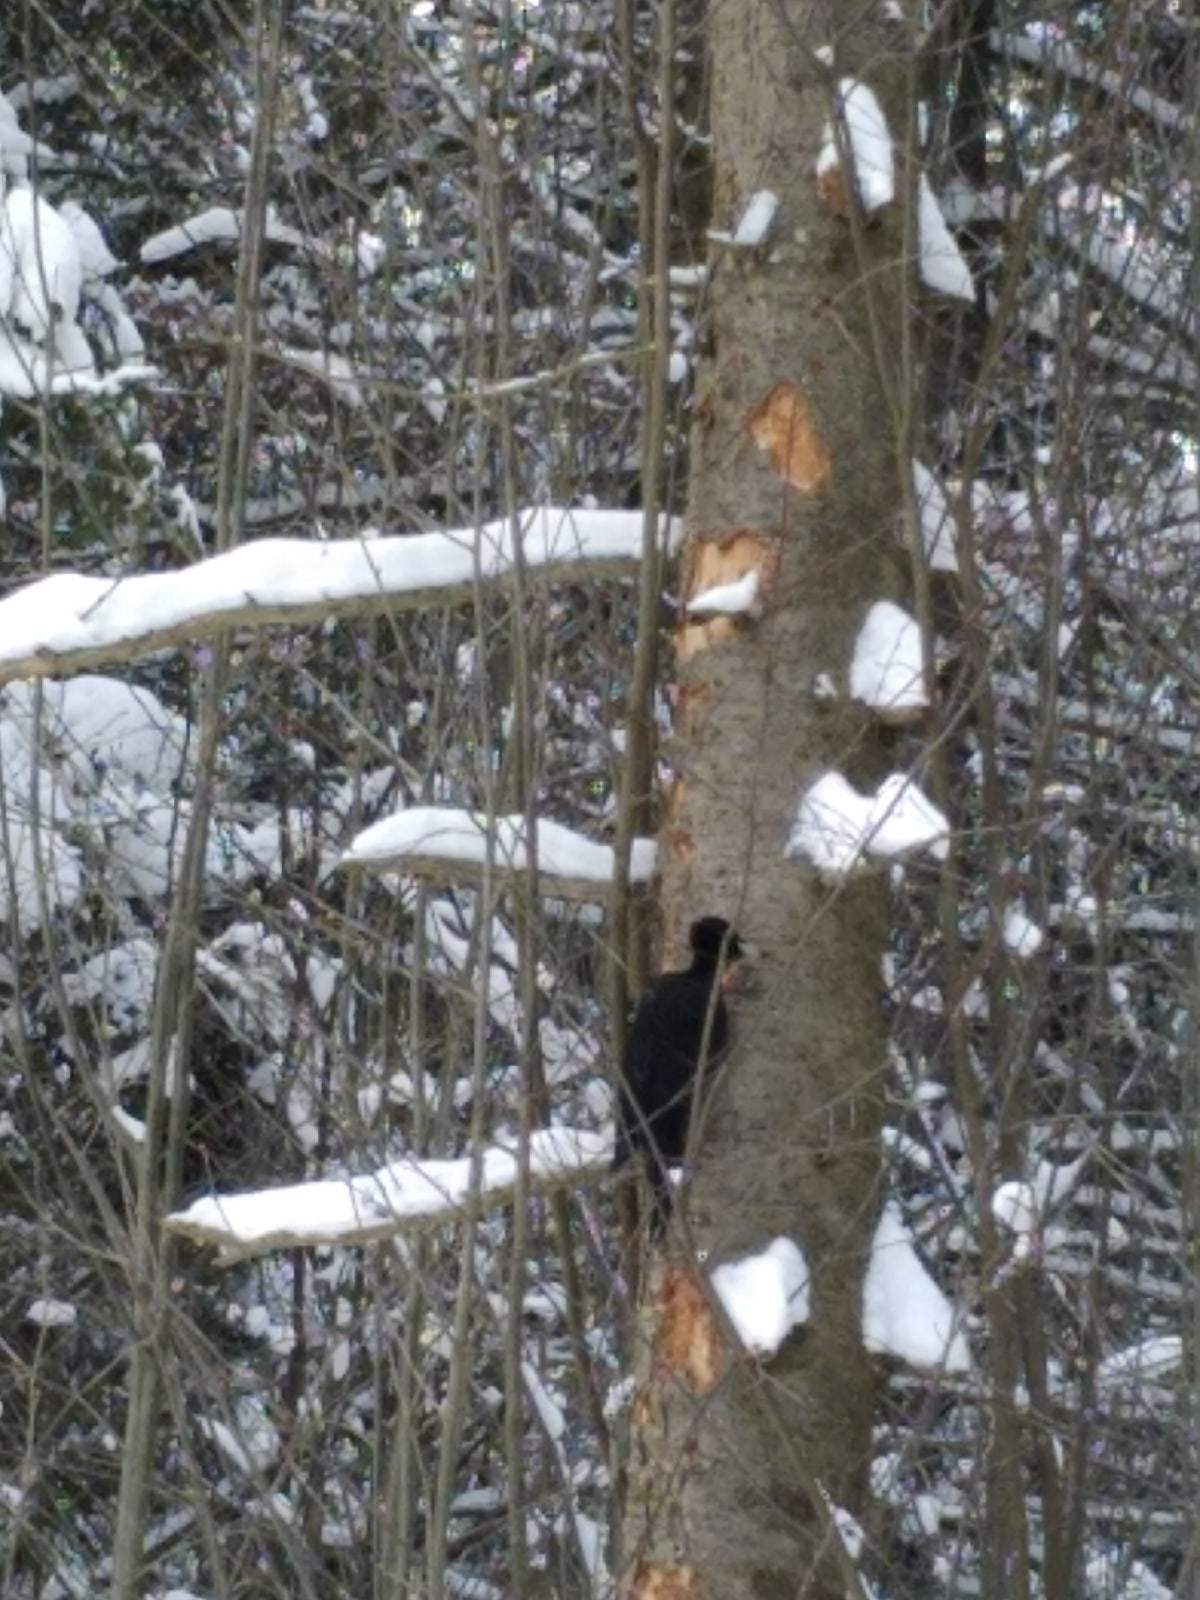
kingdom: Animalia
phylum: Chordata
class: Aves
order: Piciformes
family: Picidae
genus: Dryocopus
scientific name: Dryocopus martius
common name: Black woodpecker
